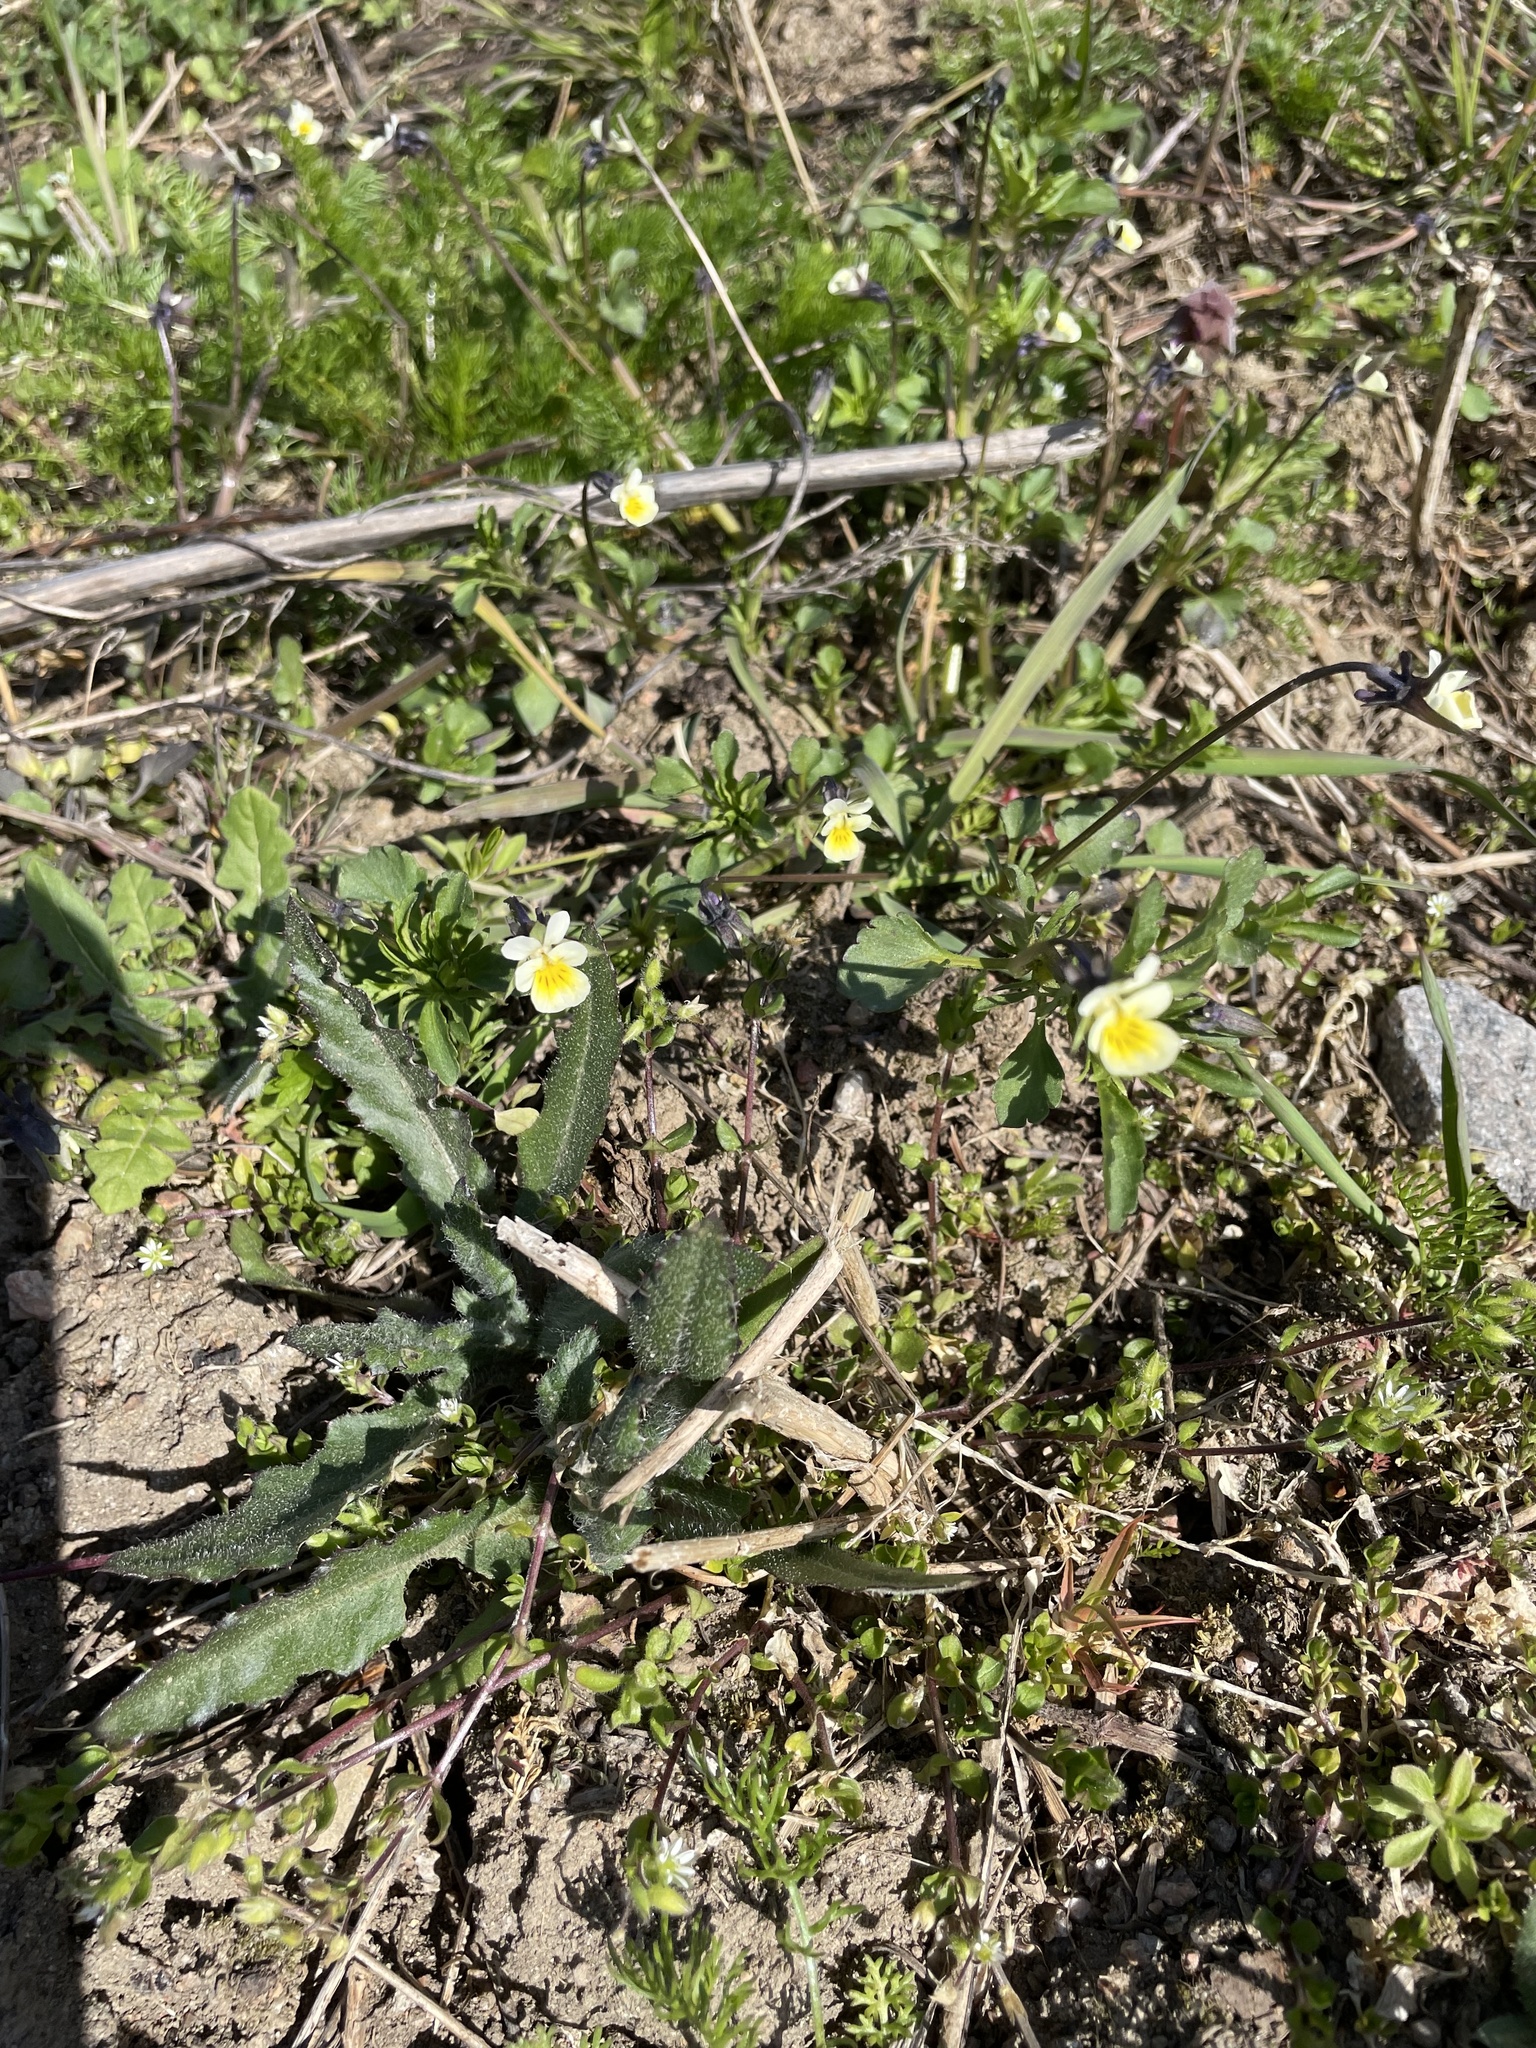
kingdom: Plantae
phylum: Tracheophyta
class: Magnoliopsida
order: Malpighiales
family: Violaceae
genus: Viola
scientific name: Viola arvensis
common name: Field pansy
